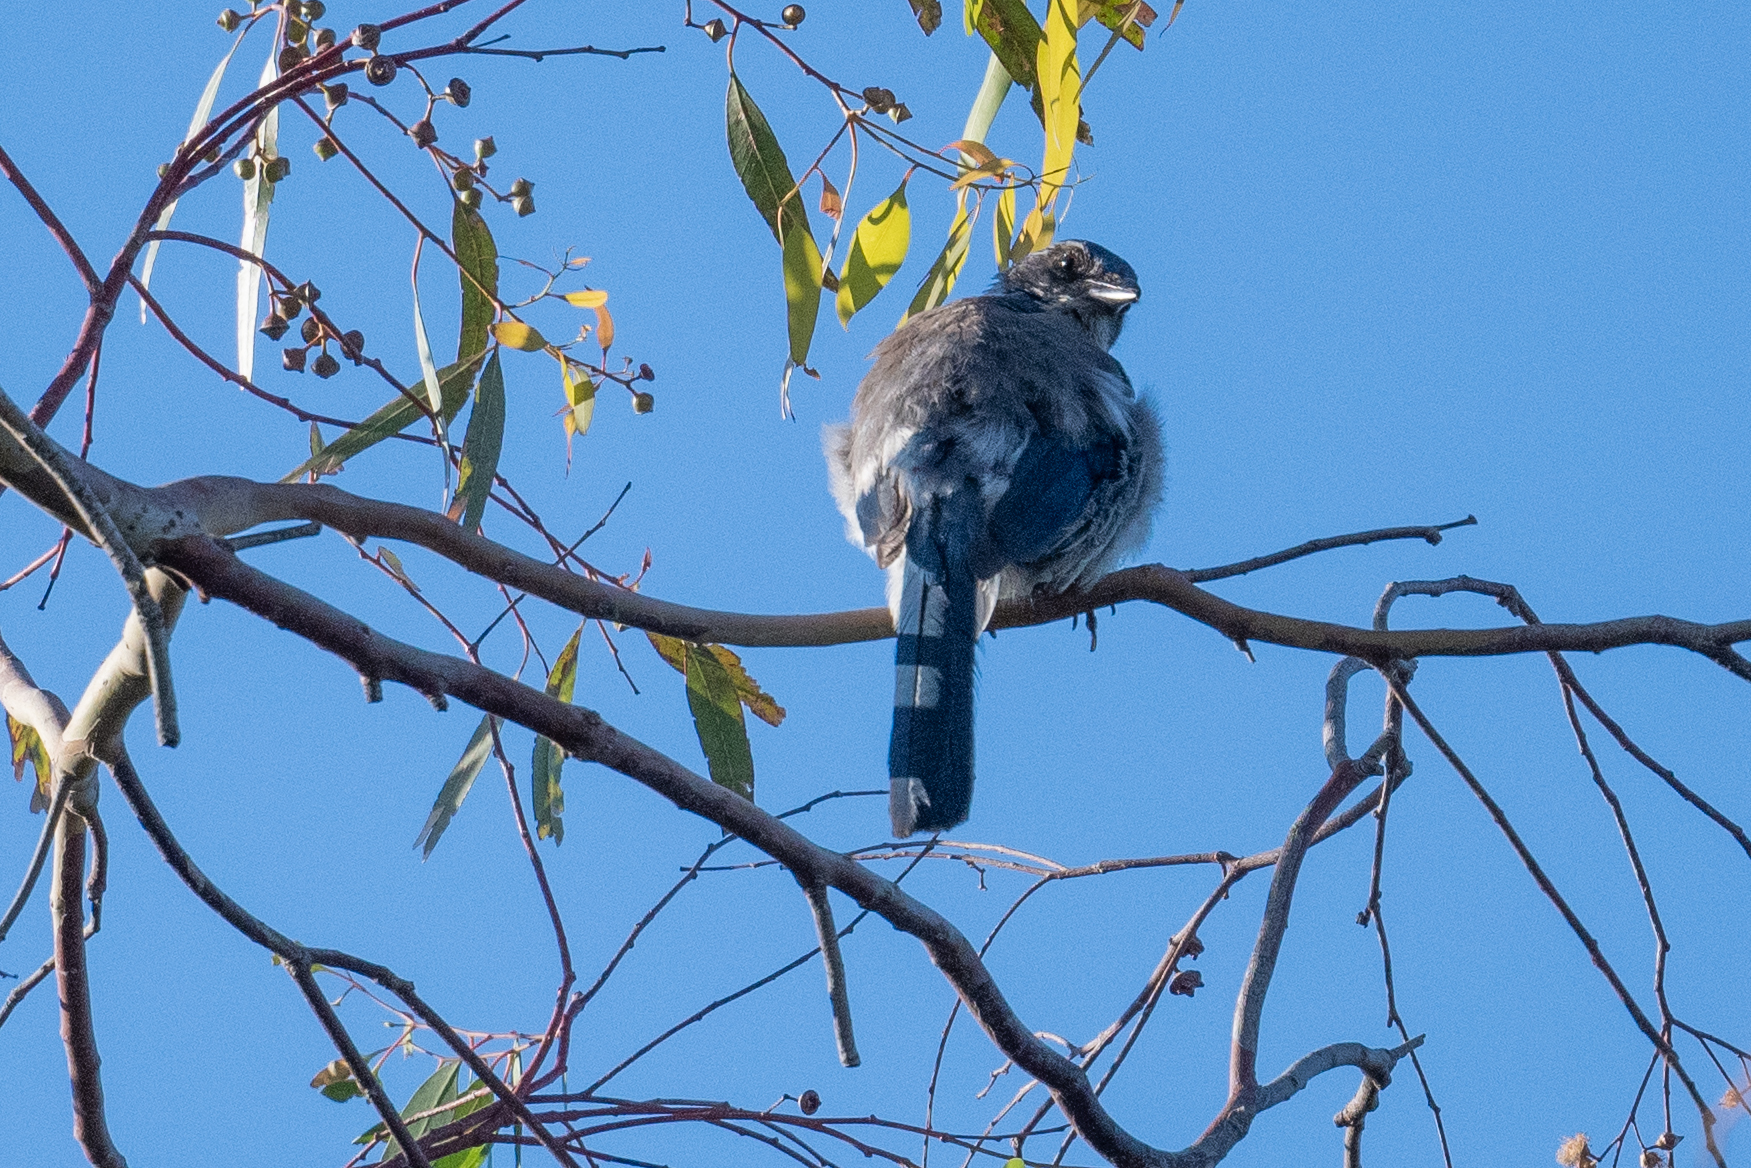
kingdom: Animalia
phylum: Chordata
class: Aves
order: Passeriformes
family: Corvidae
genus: Aphelocoma
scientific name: Aphelocoma californica
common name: California scrub-jay
